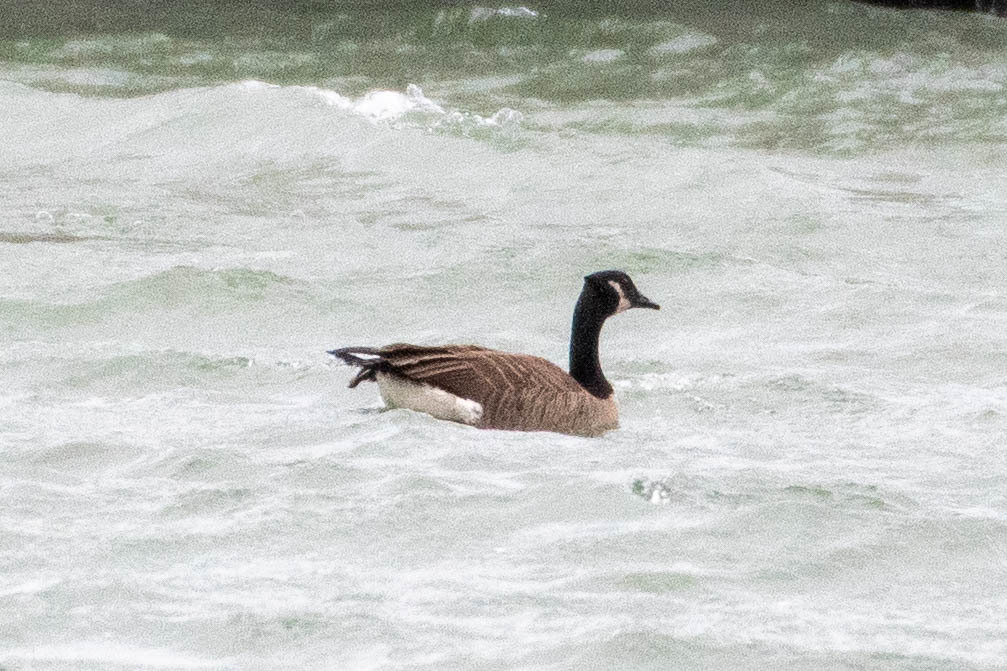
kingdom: Animalia
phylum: Chordata
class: Aves
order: Anseriformes
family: Anatidae
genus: Branta
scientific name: Branta canadensis
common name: Canada goose
